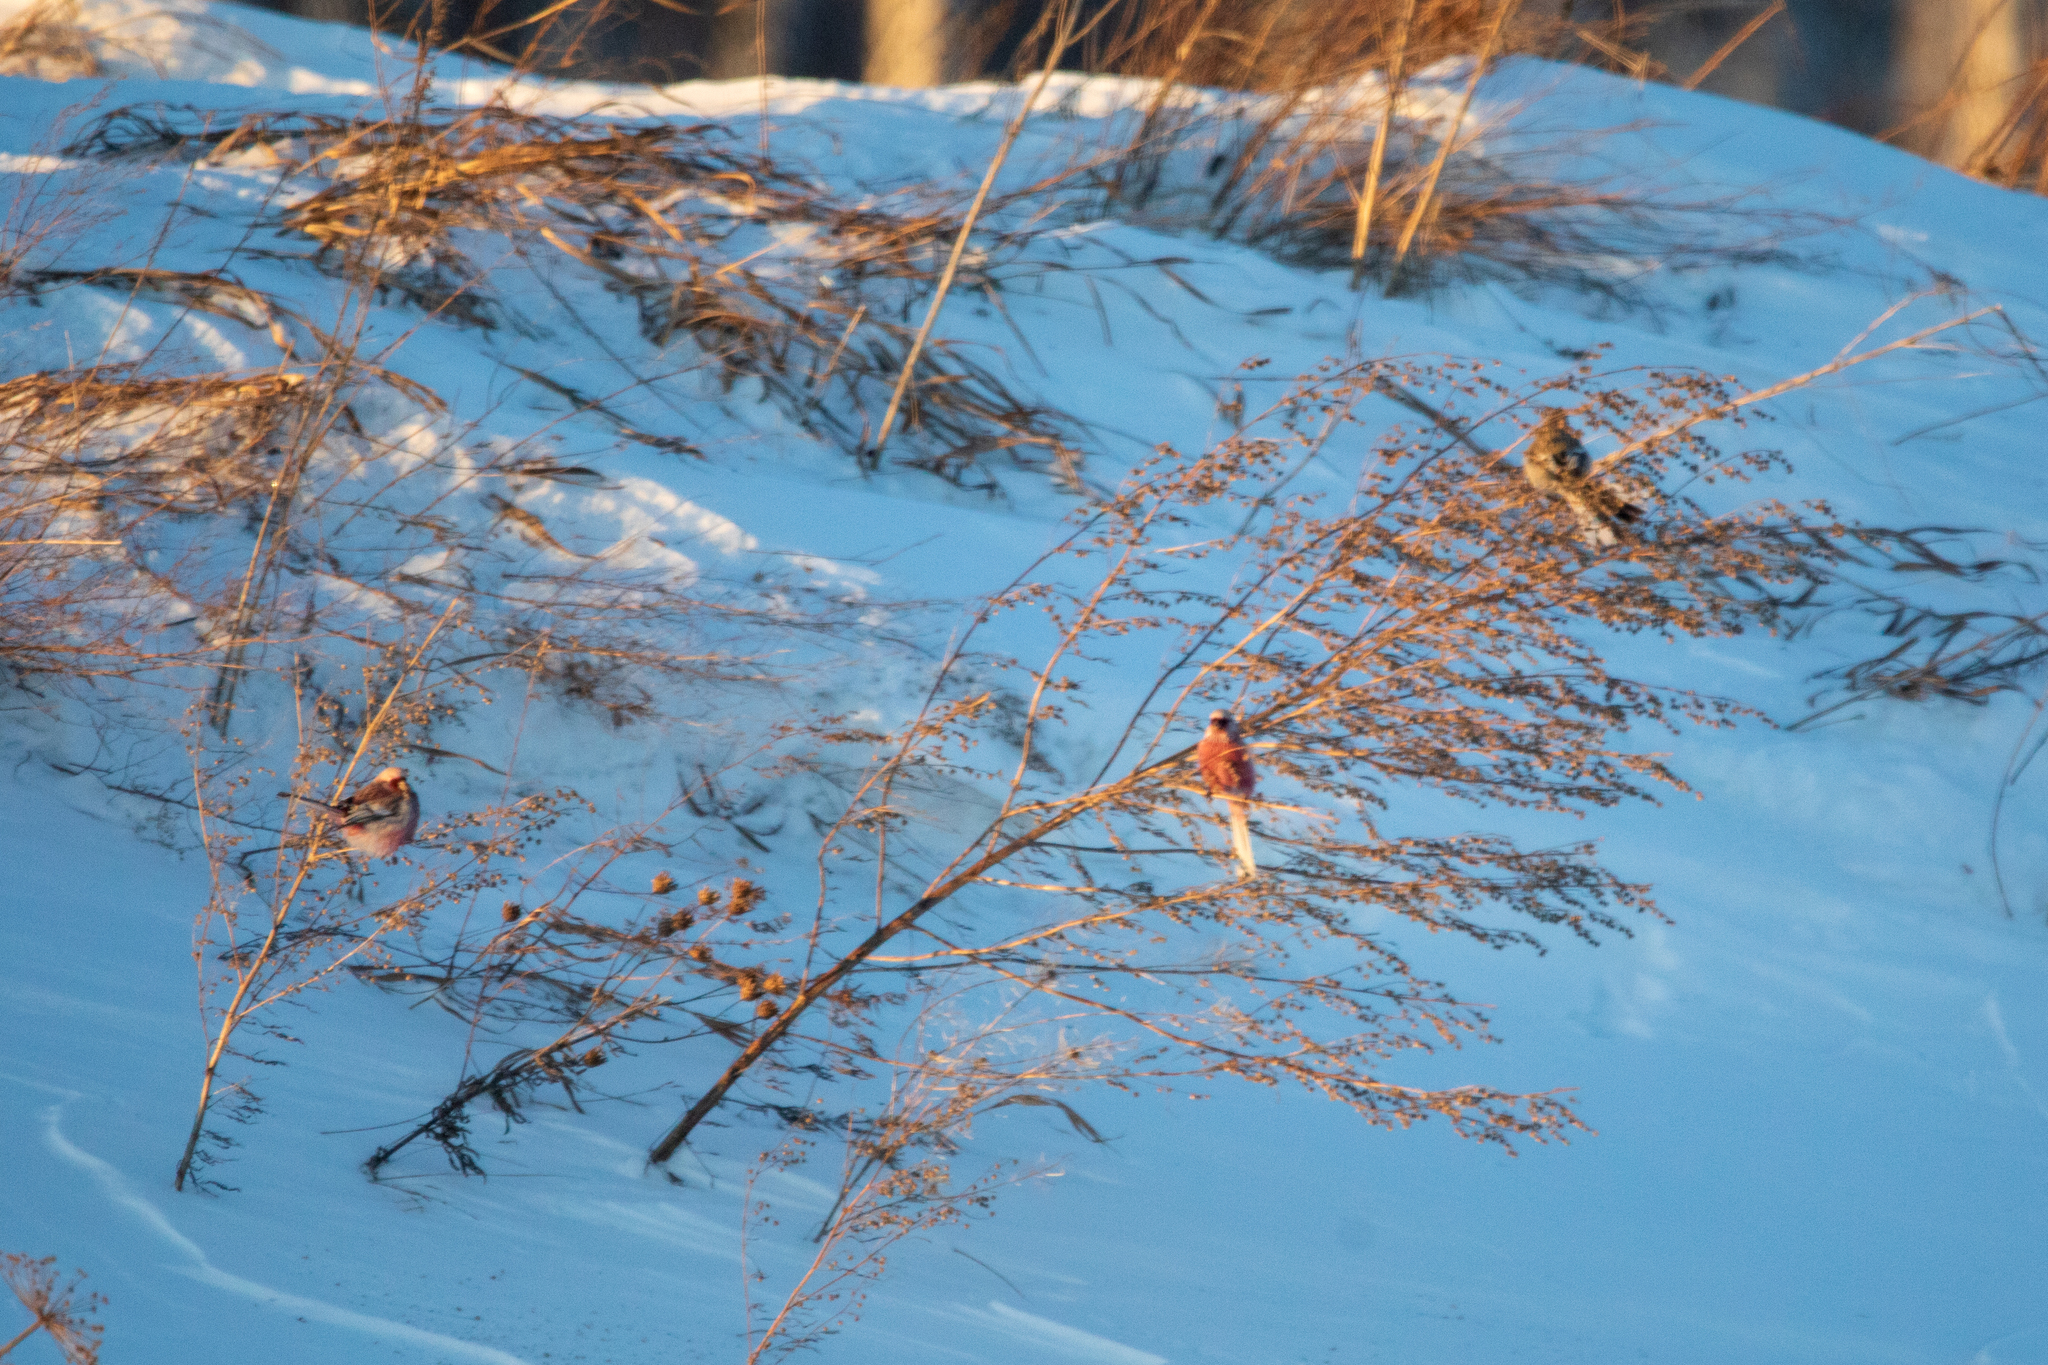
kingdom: Animalia
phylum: Chordata
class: Aves
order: Passeriformes
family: Fringillidae
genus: Carpodacus
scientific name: Carpodacus sibiricus
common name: Long-tailed rosefinch
